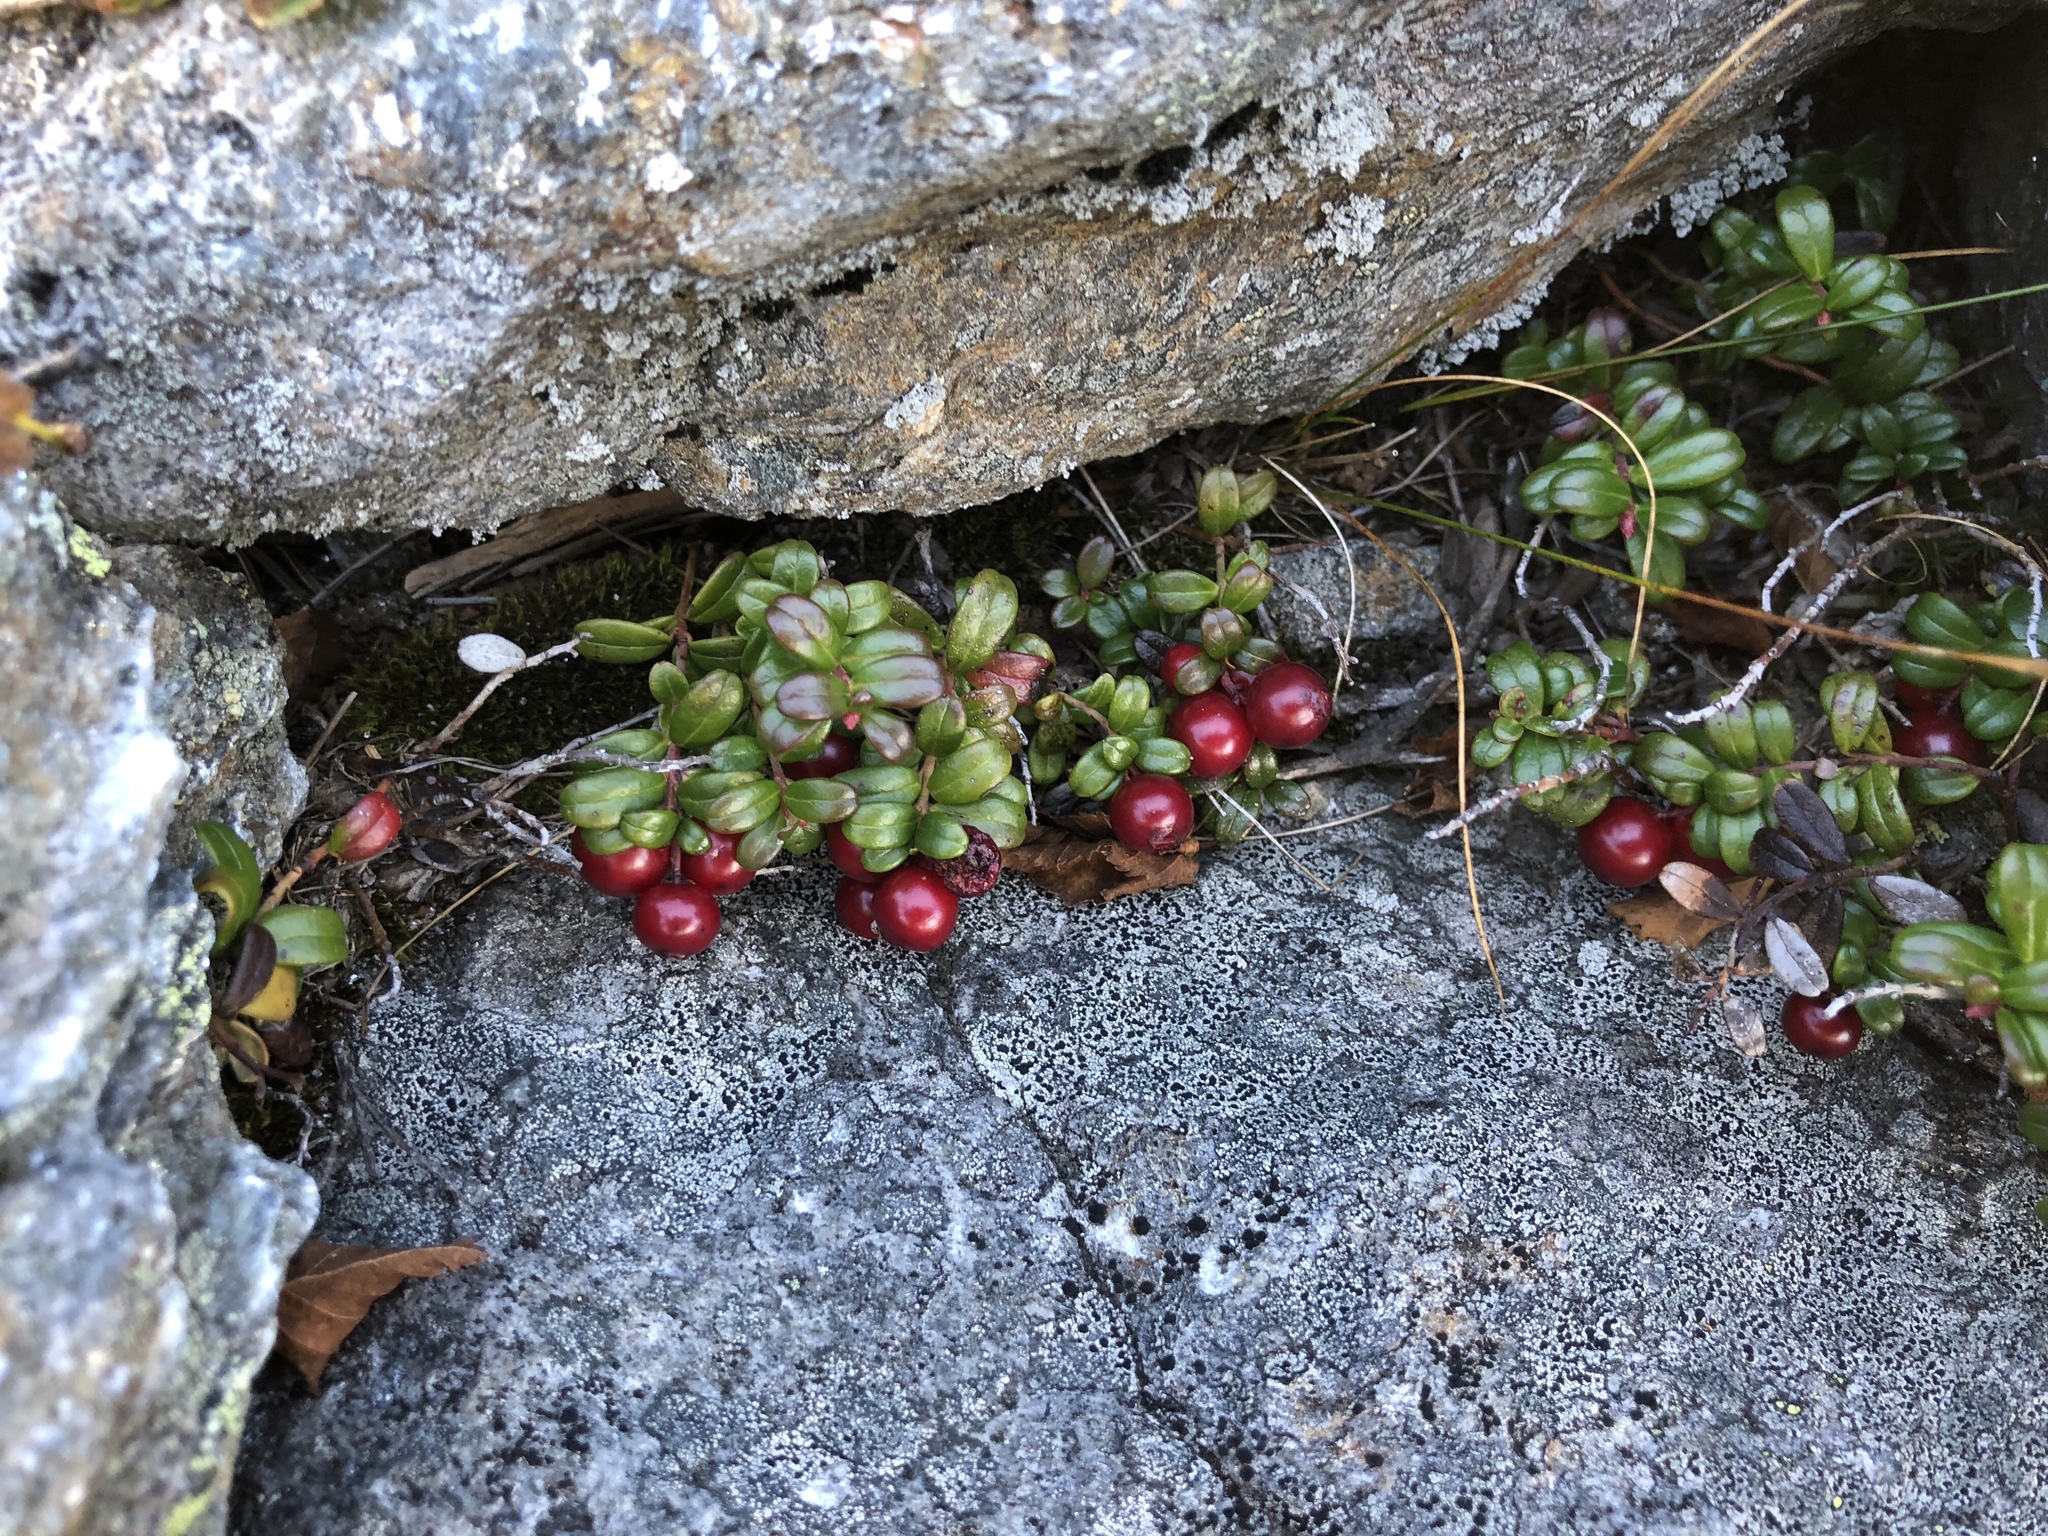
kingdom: Plantae
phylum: Tracheophyta
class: Magnoliopsida
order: Ericales
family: Ericaceae
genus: Vaccinium
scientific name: Vaccinium vitis-idaea
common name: Cowberry
